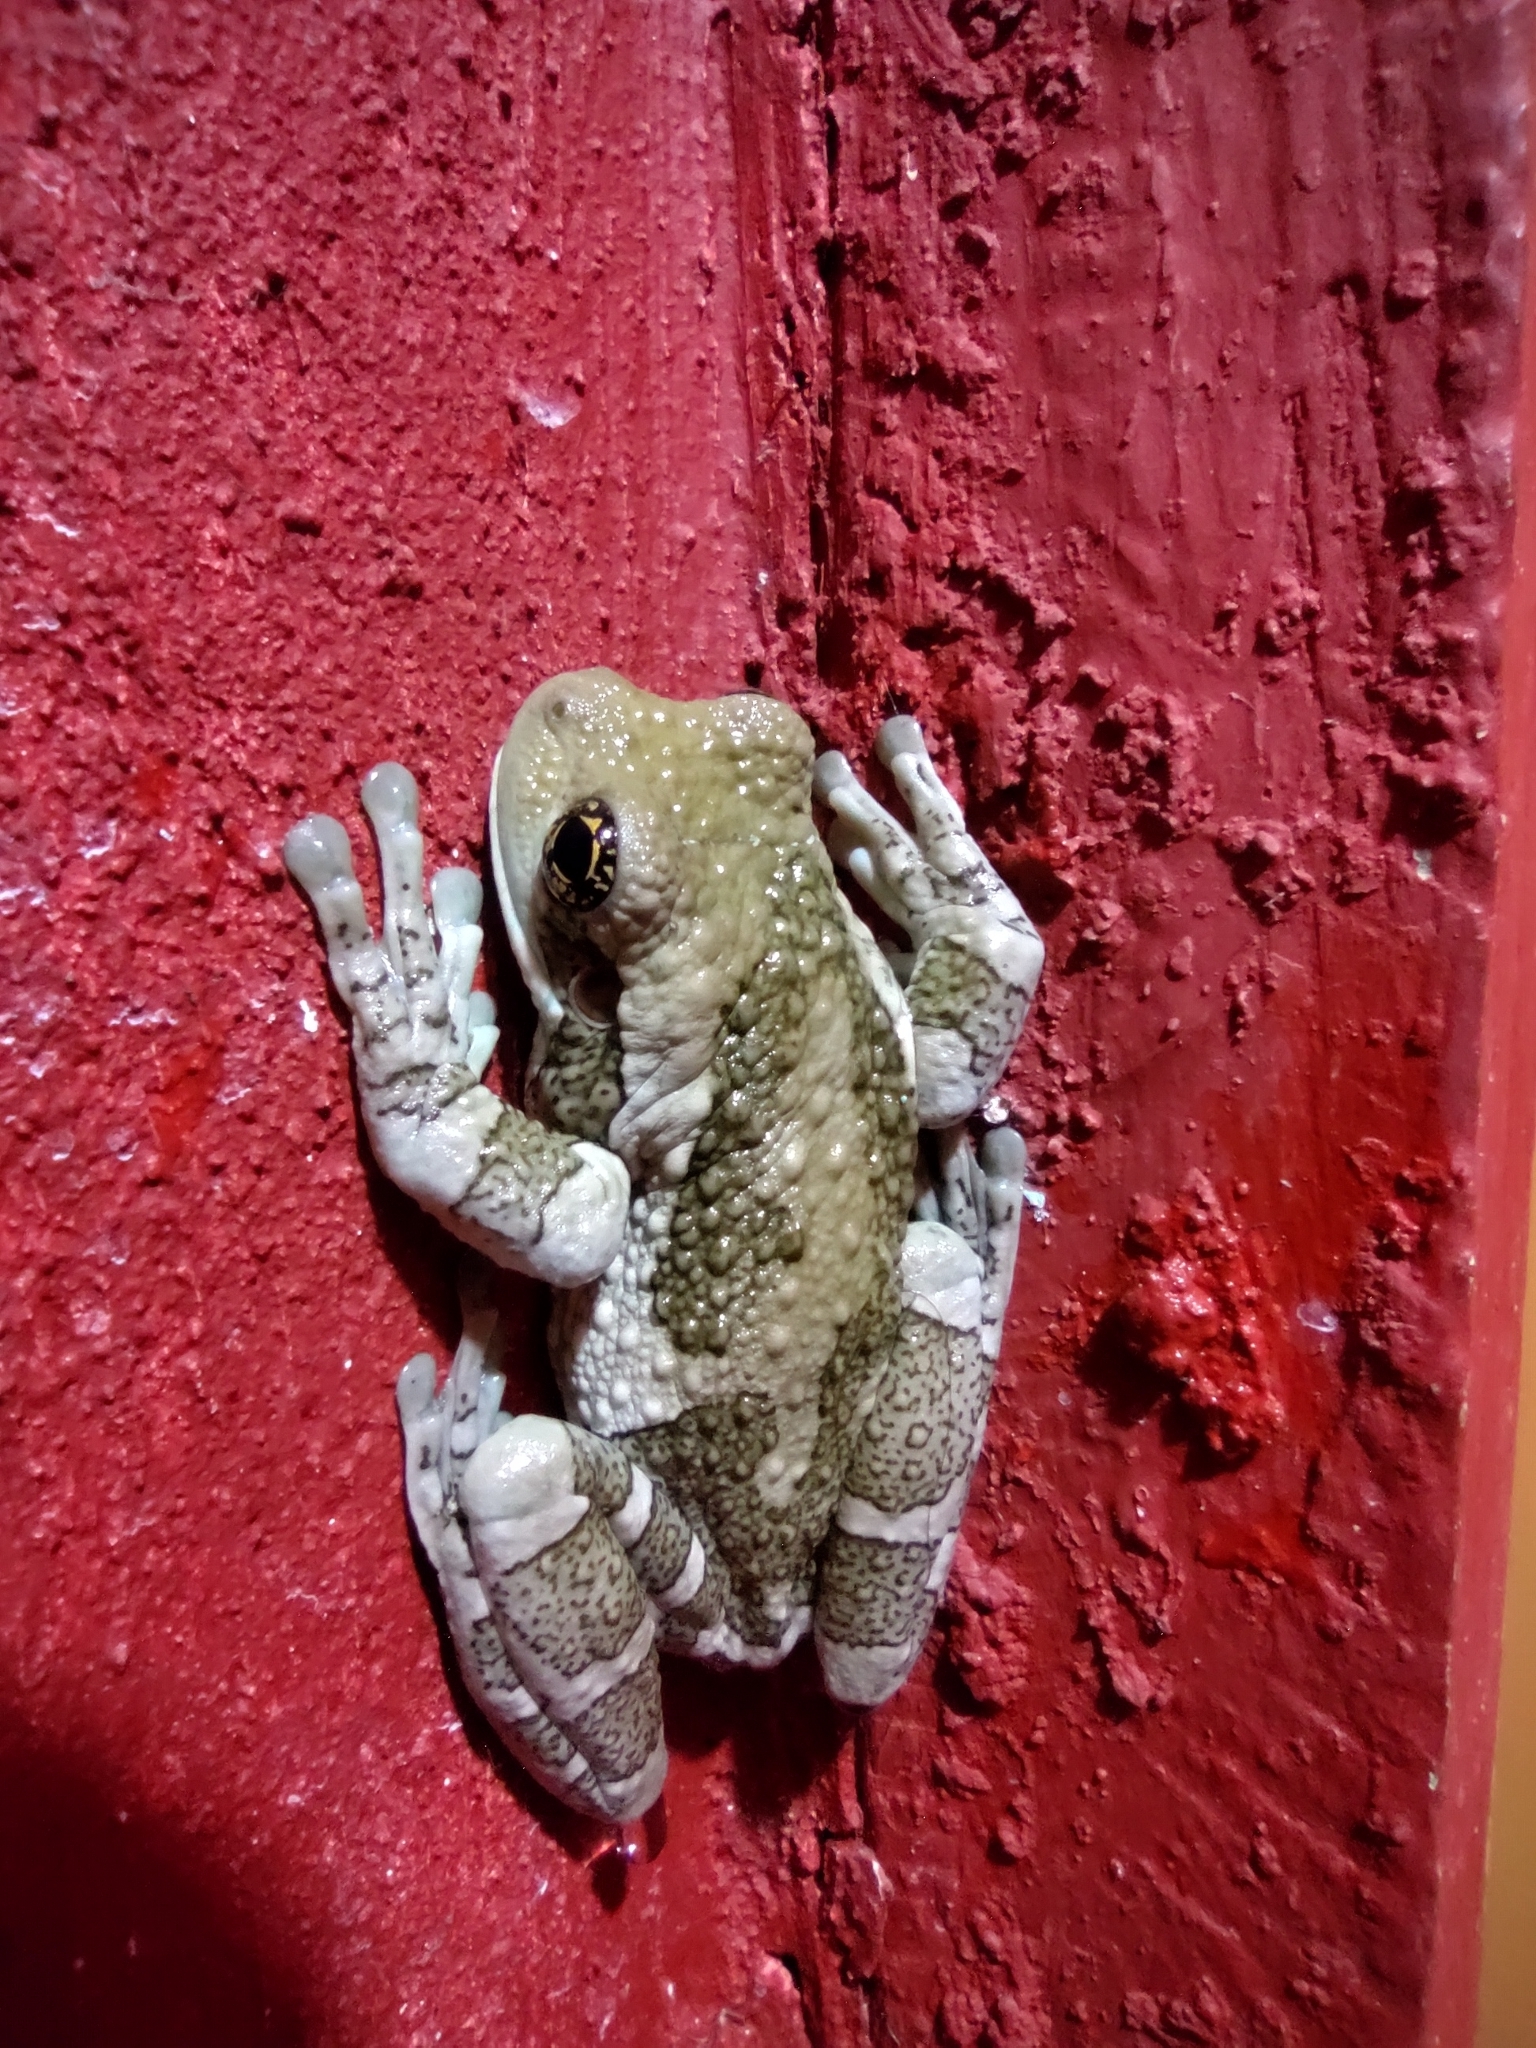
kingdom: Animalia
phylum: Chordata
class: Amphibia
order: Anura
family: Hylidae
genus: Trachycephalus
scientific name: Trachycephalus vermiculatus
